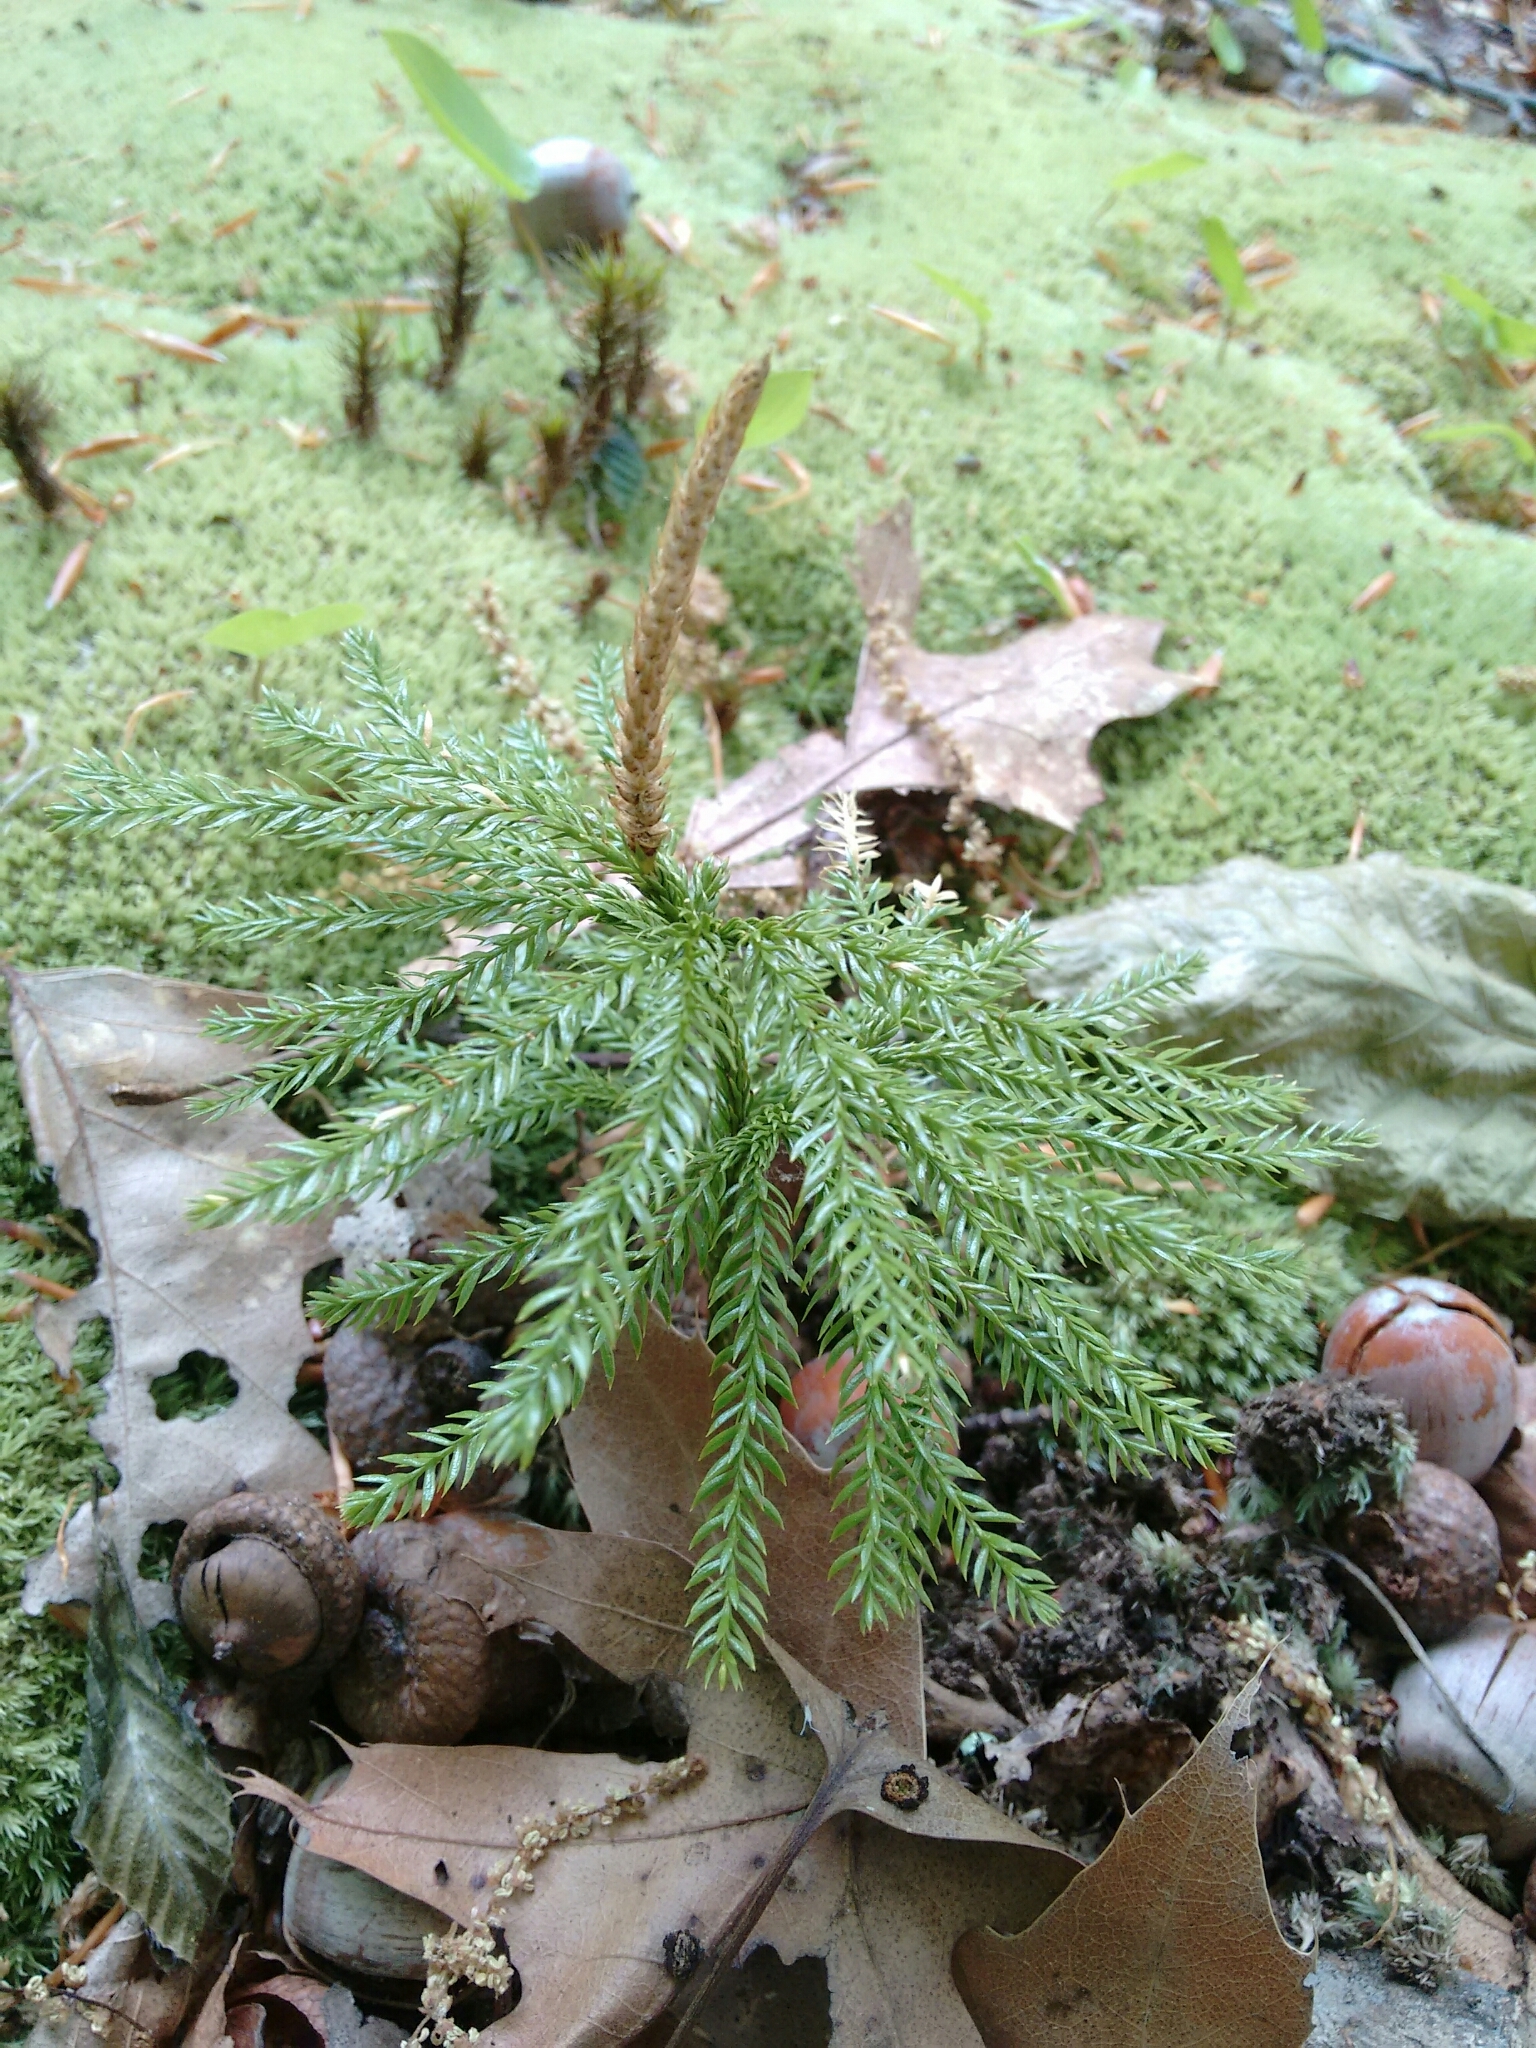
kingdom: Plantae
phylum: Tracheophyta
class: Lycopodiopsida
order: Lycopodiales
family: Lycopodiaceae
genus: Dendrolycopodium
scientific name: Dendrolycopodium obscurum
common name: Common ground-pine
